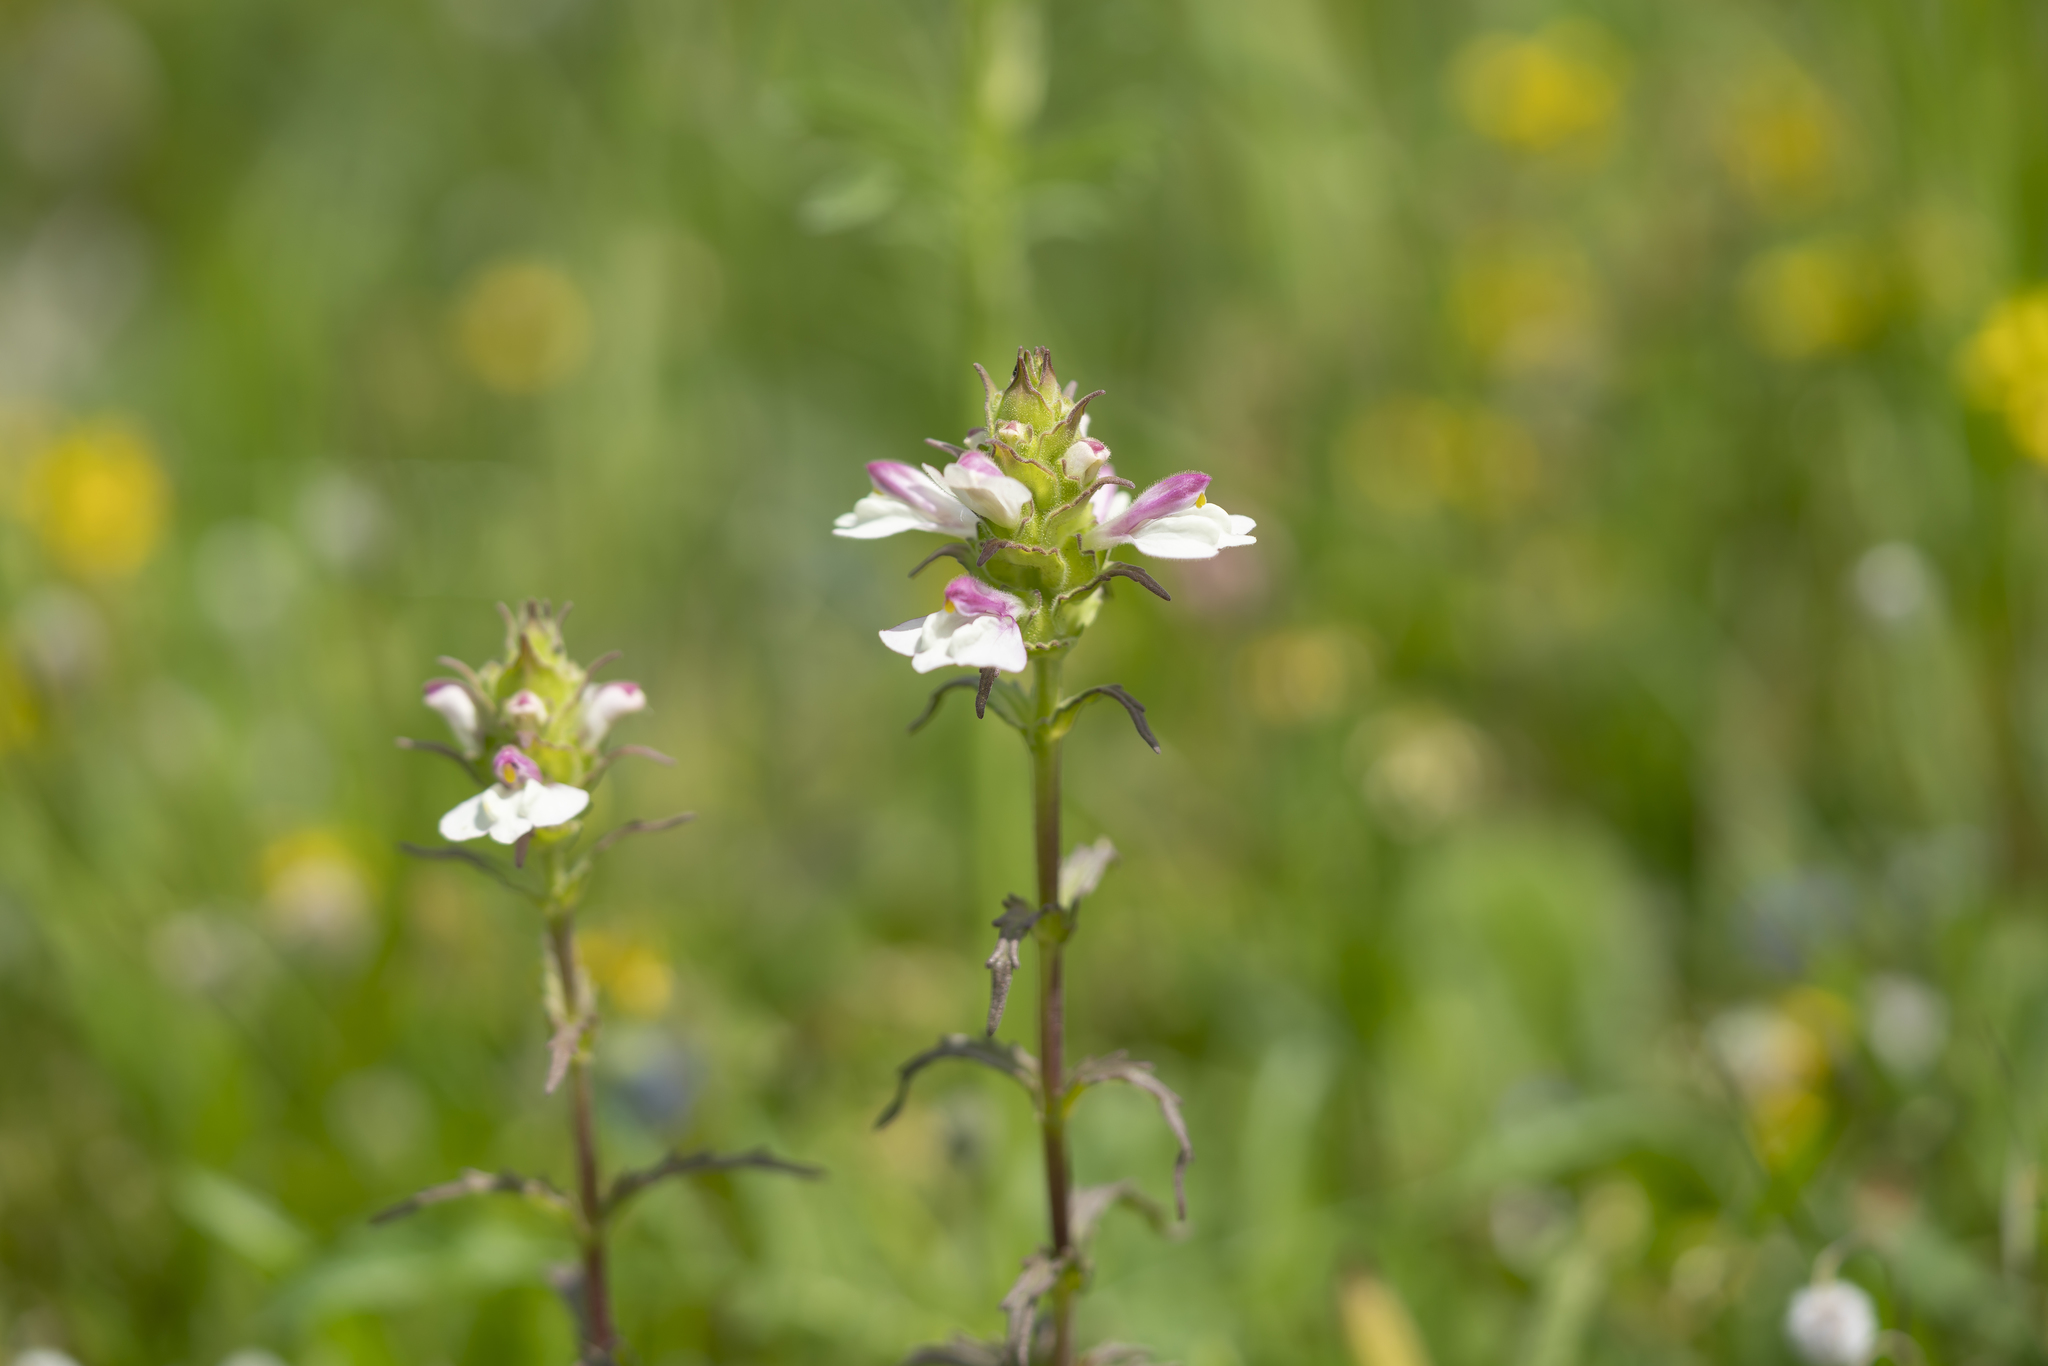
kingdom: Plantae
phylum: Tracheophyta
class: Magnoliopsida
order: Lamiales
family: Orobanchaceae
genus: Bellardia
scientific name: Bellardia trixago
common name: Mediterranean lineseed
